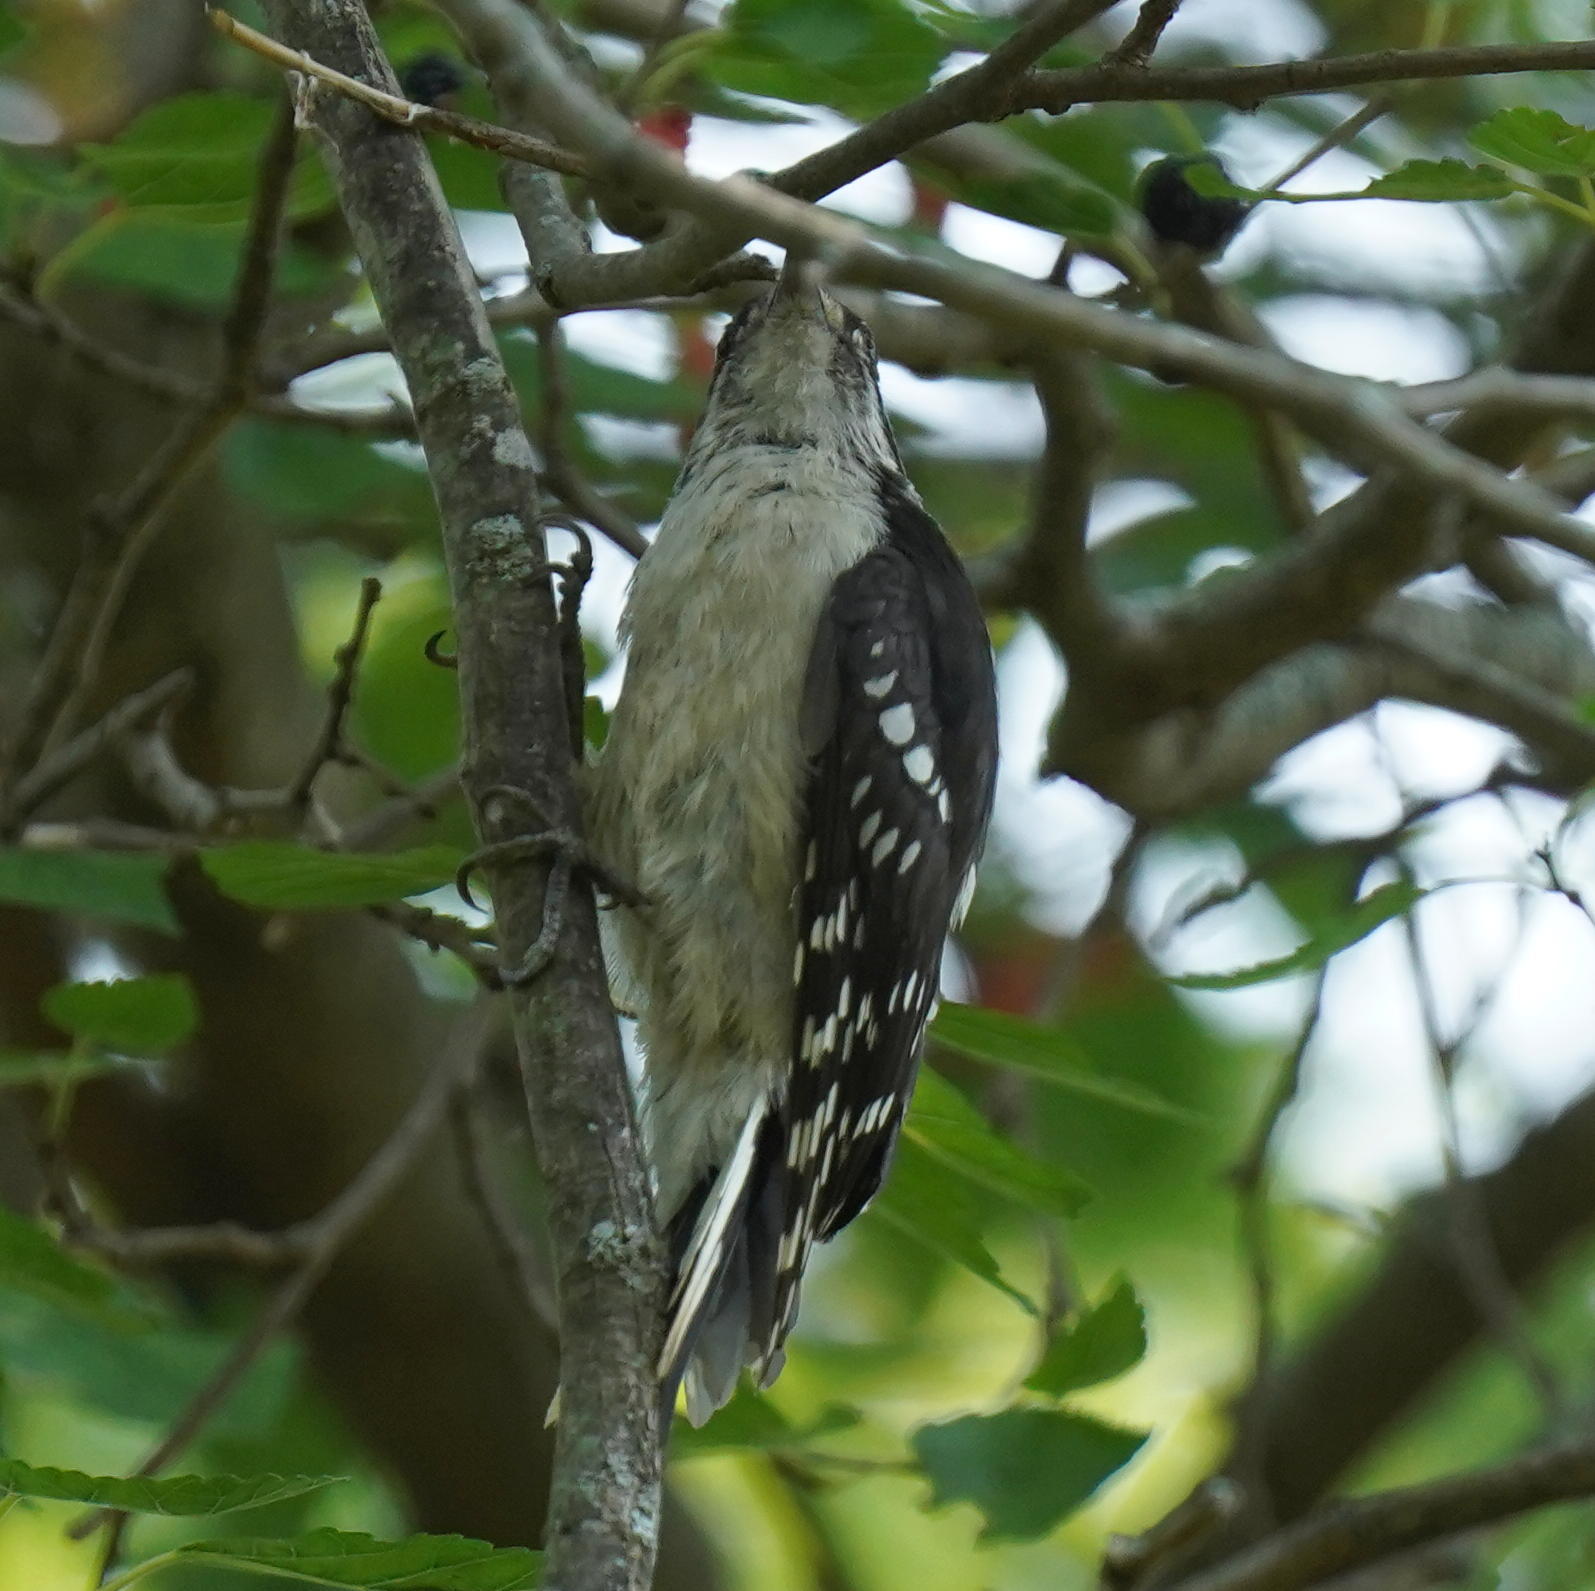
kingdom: Animalia
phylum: Chordata
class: Aves
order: Piciformes
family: Picidae
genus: Dryobates
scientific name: Dryobates pubescens
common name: Downy woodpecker
